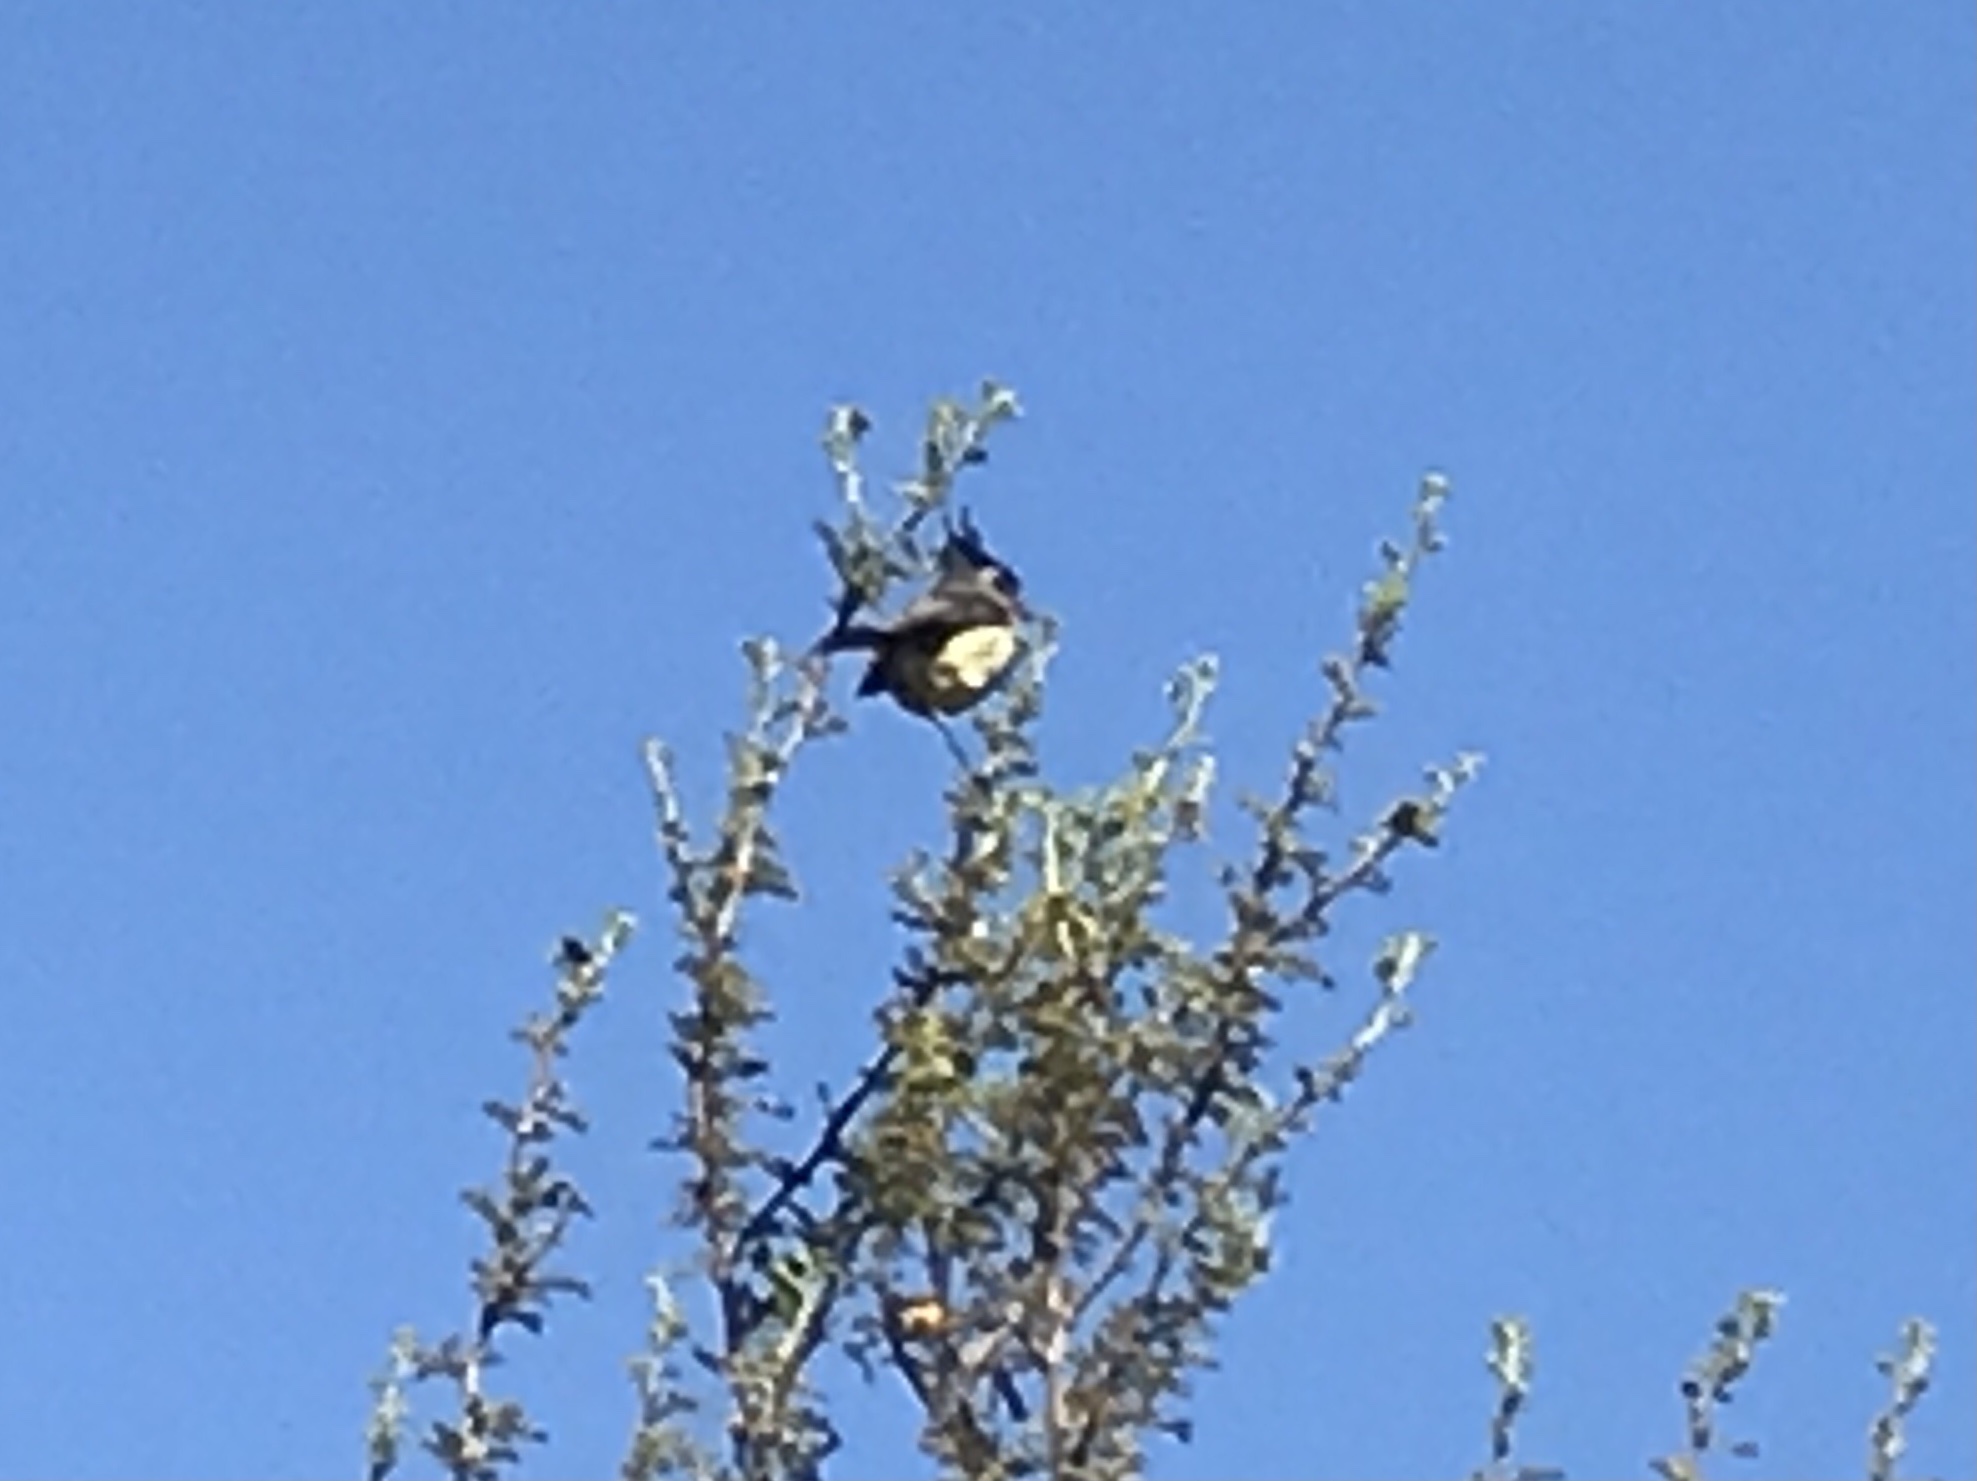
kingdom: Animalia
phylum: Chordata
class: Aves
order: Passeriformes
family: Tyrannidae
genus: Anairetes
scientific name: Anairetes parulus
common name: Tufted tit-tyrant
